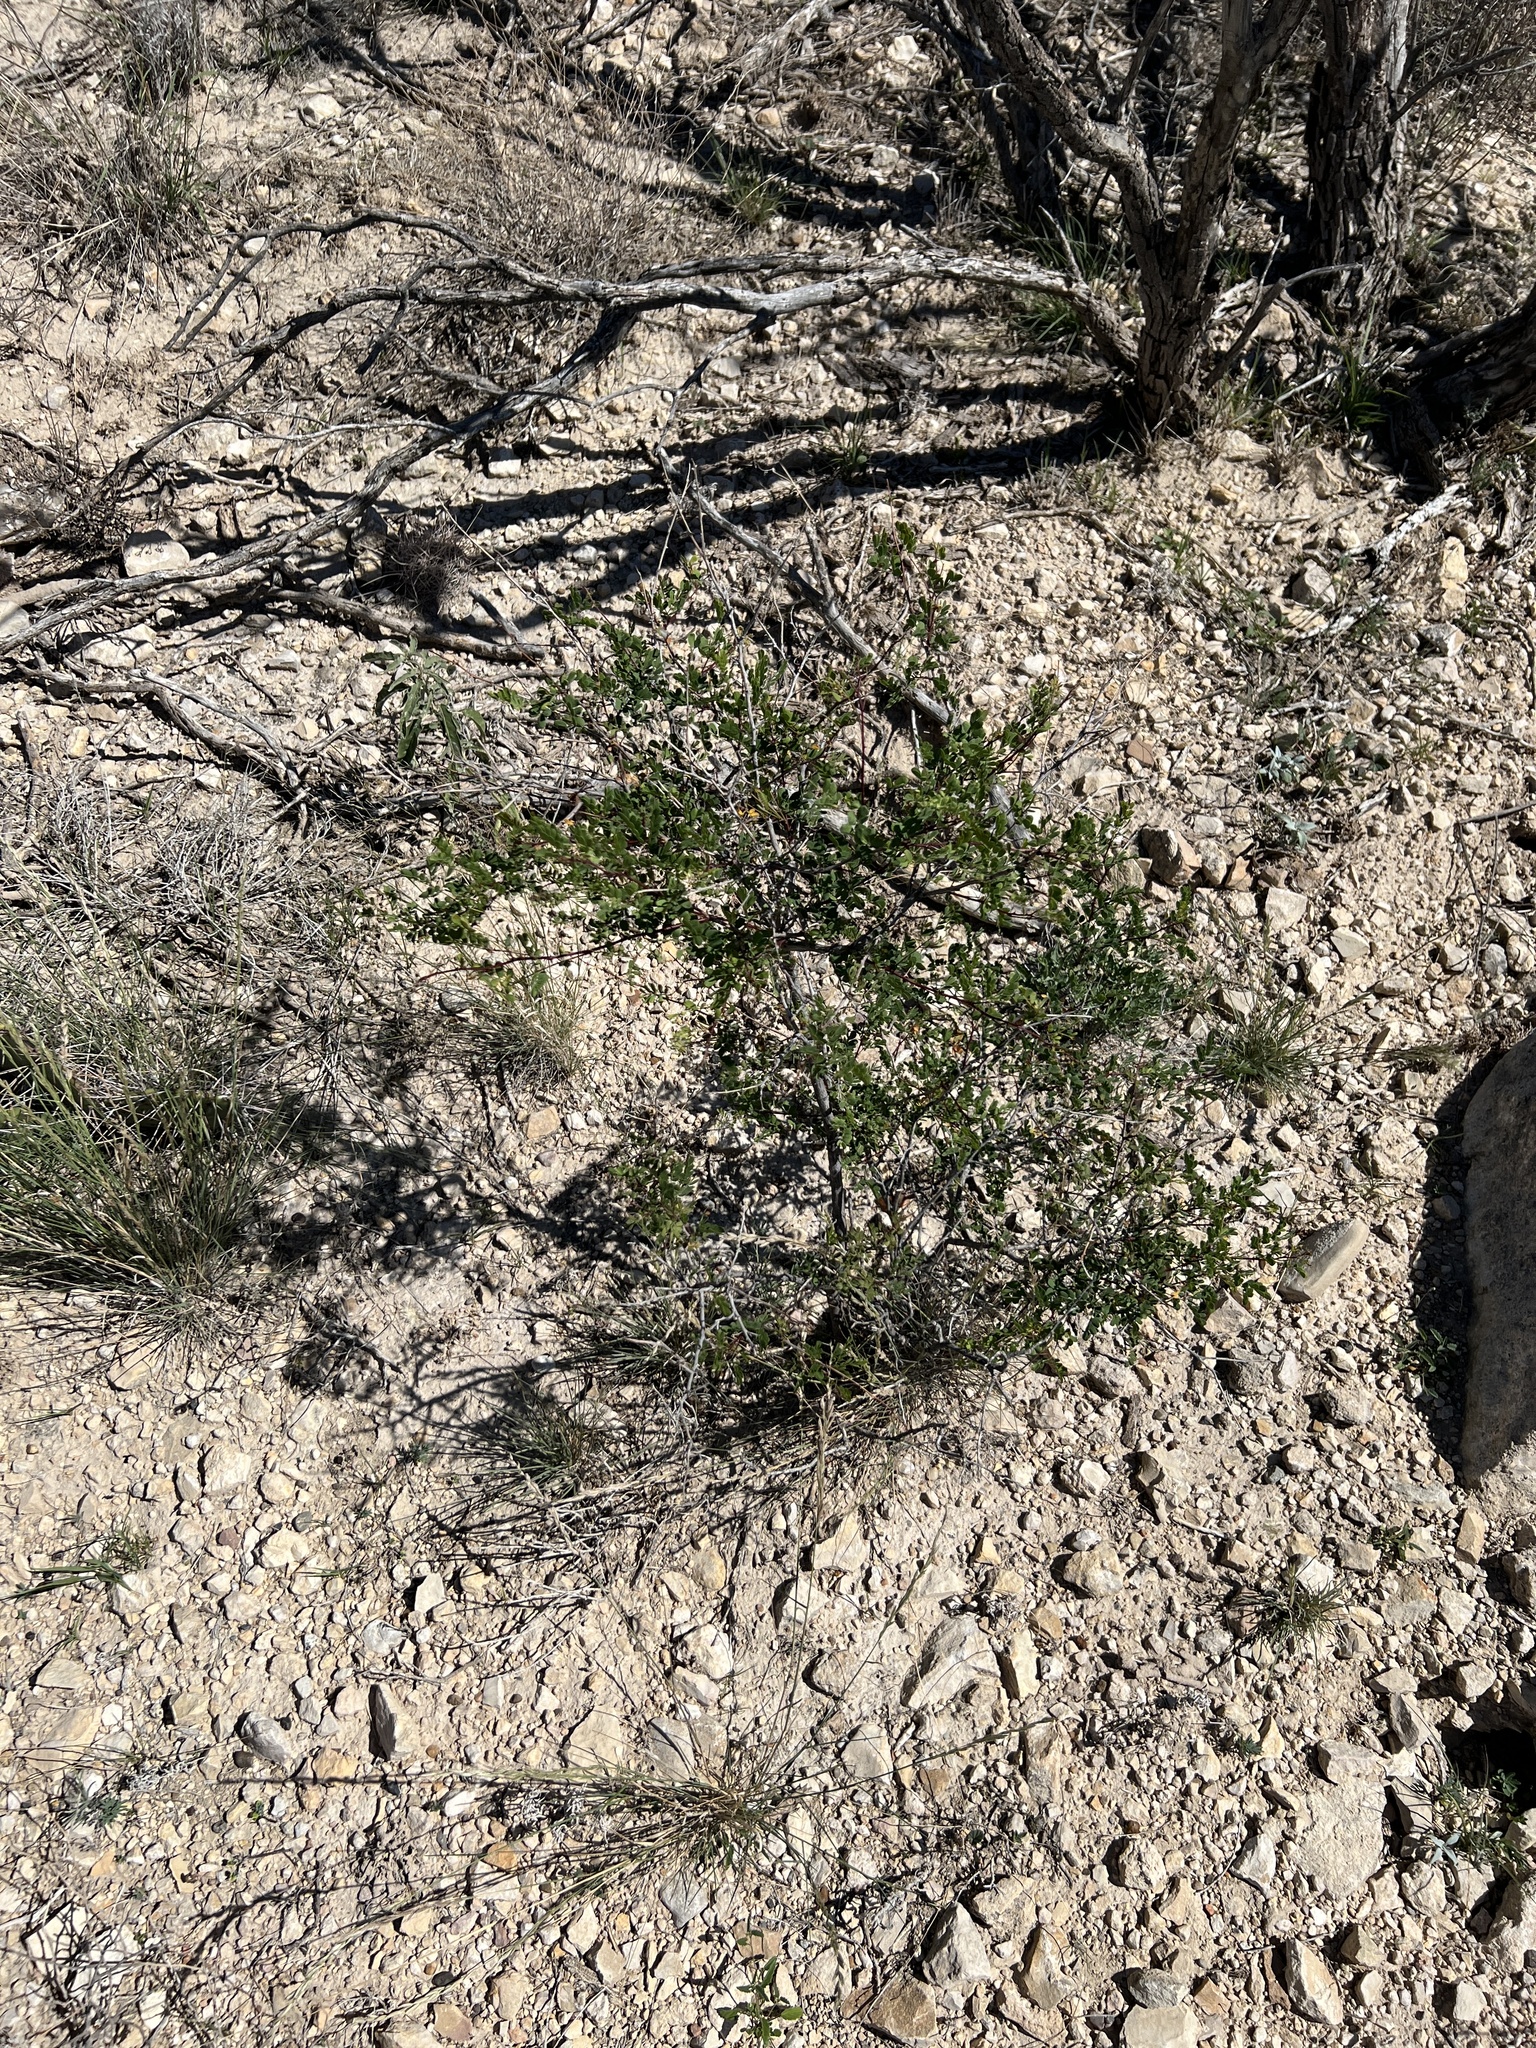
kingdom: Plantae
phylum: Tracheophyta
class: Magnoliopsida
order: Fabales
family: Fabaceae
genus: Senegalia
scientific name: Senegalia roemeriana
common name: Roemer's acacia
